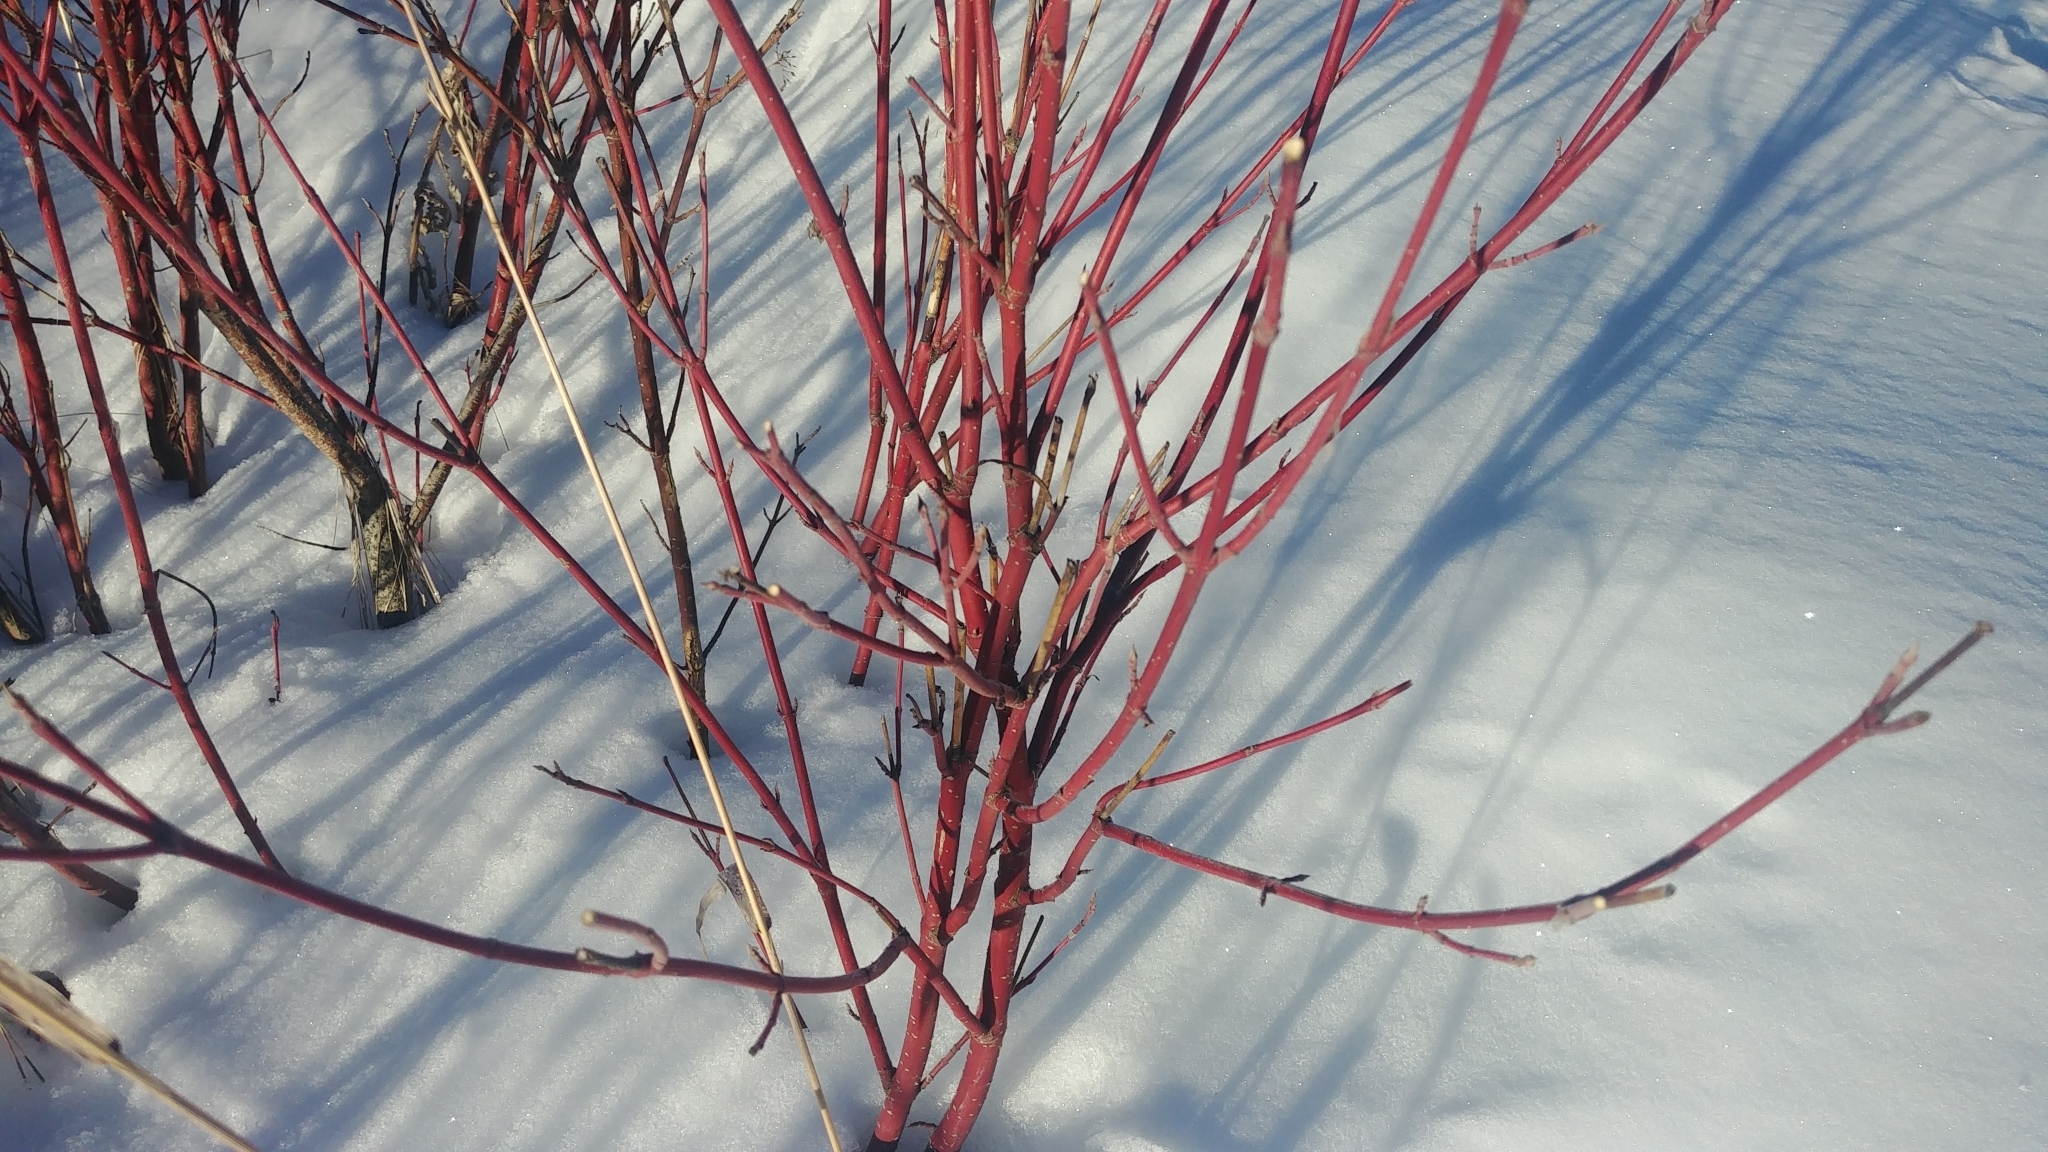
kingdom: Plantae
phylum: Tracheophyta
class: Magnoliopsida
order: Cornales
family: Cornaceae
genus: Cornus
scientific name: Cornus sericea
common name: Red-osier dogwood
